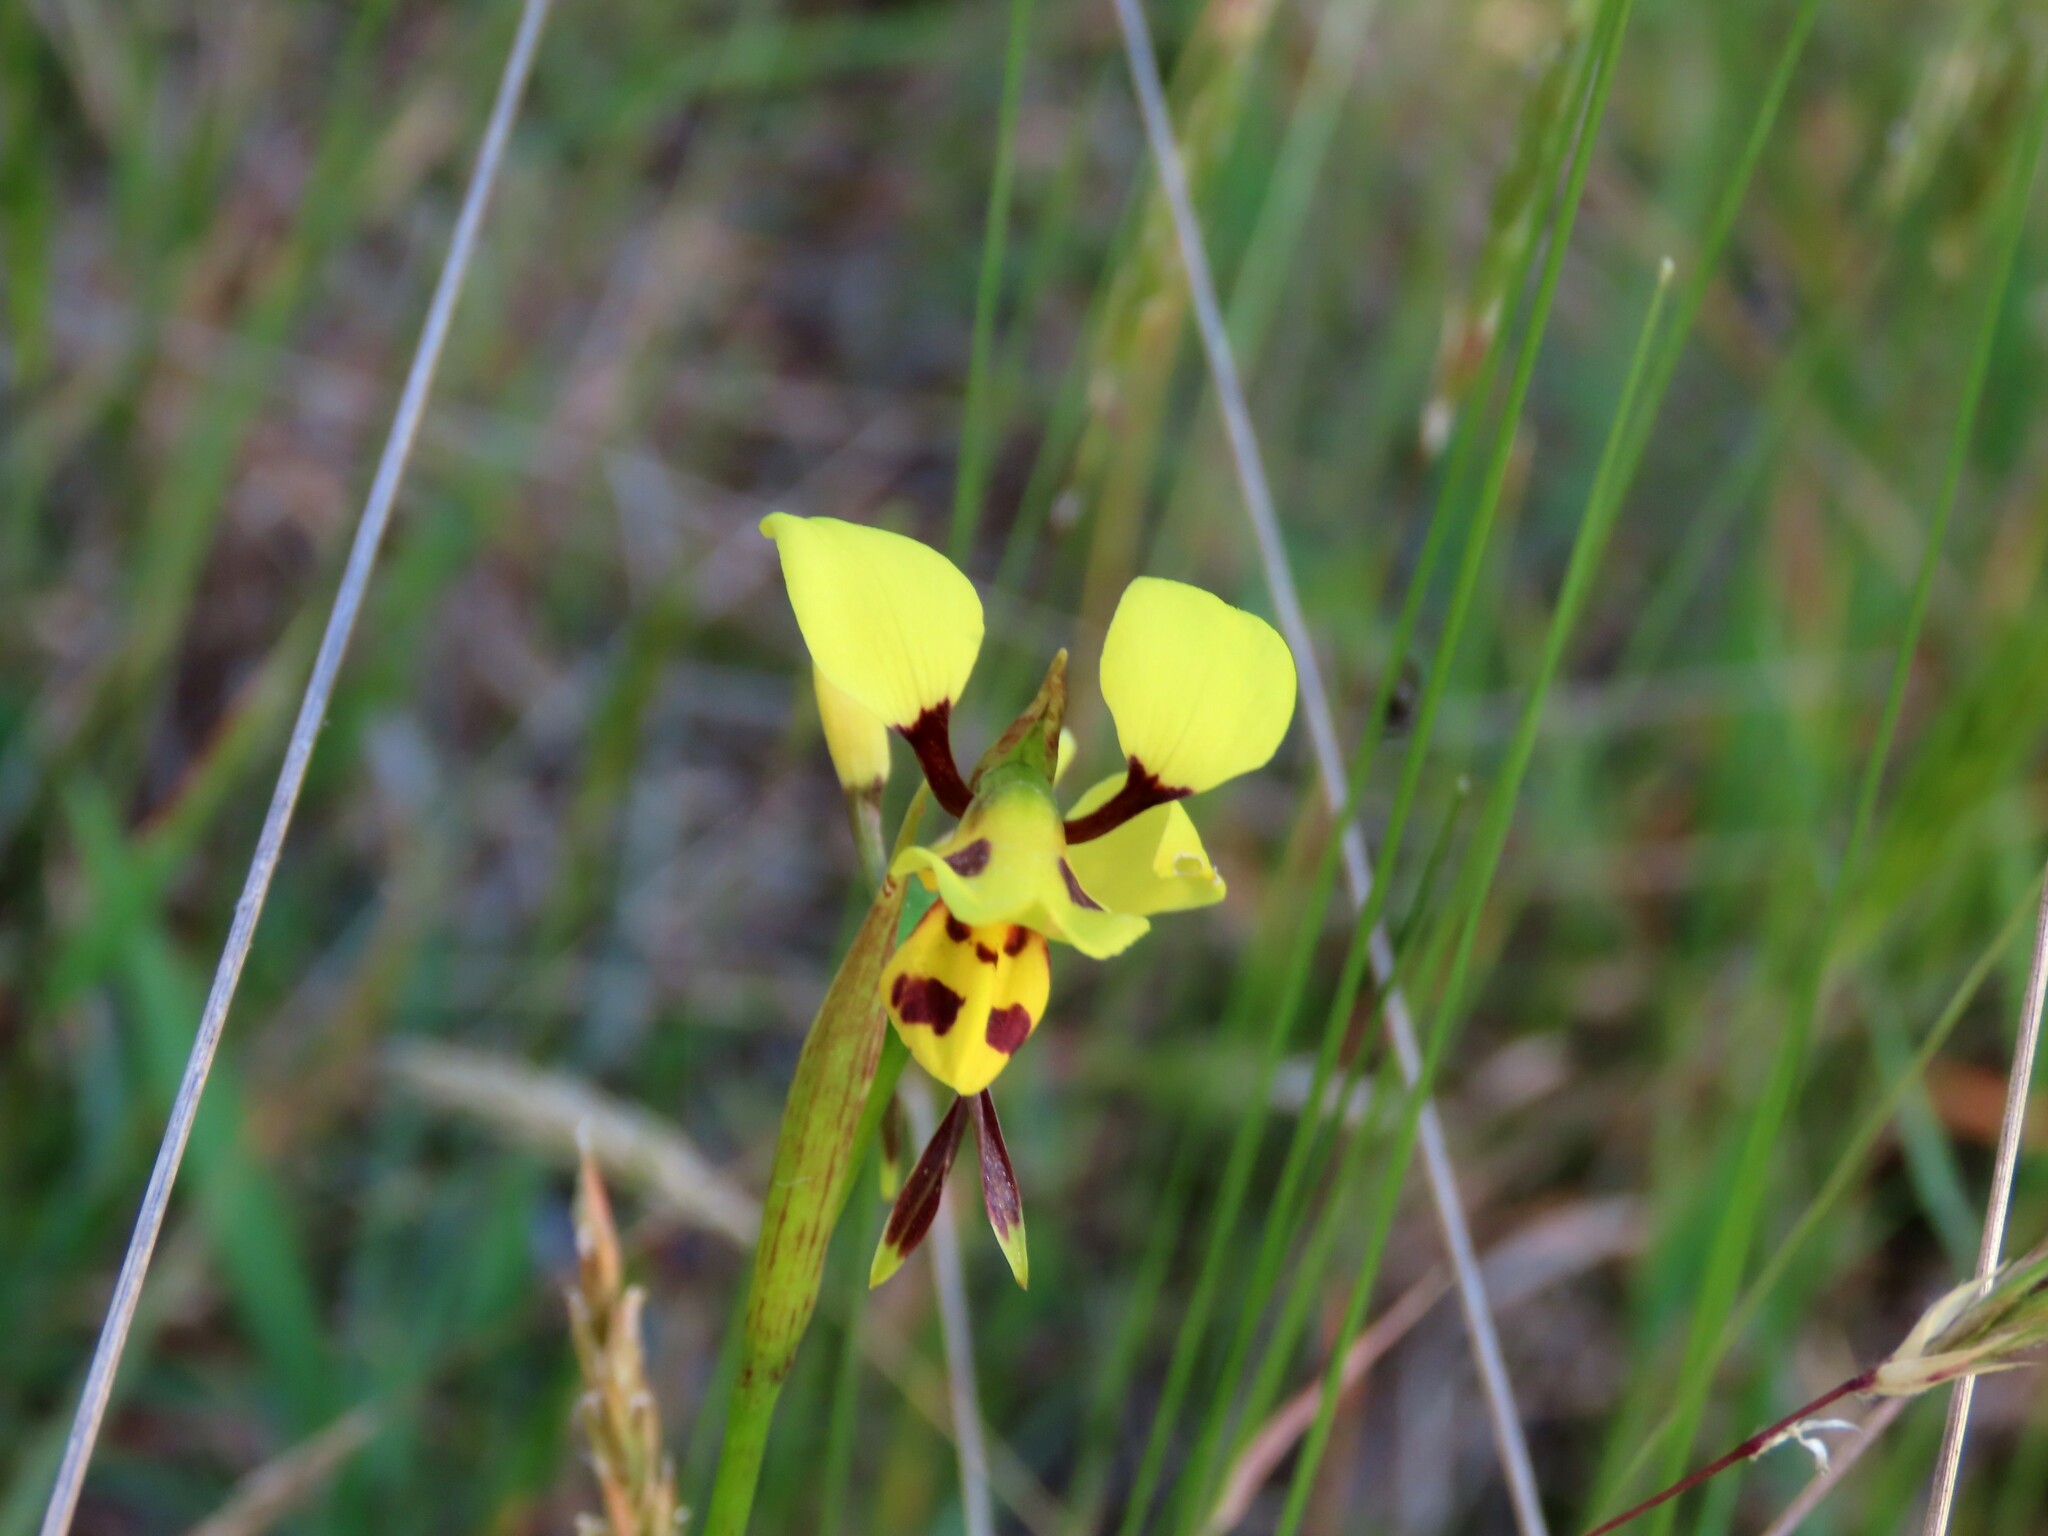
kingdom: Plantae
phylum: Tracheophyta
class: Liliopsida
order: Asparagales
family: Orchidaceae
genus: Diuris
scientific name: Diuris sulphurea
